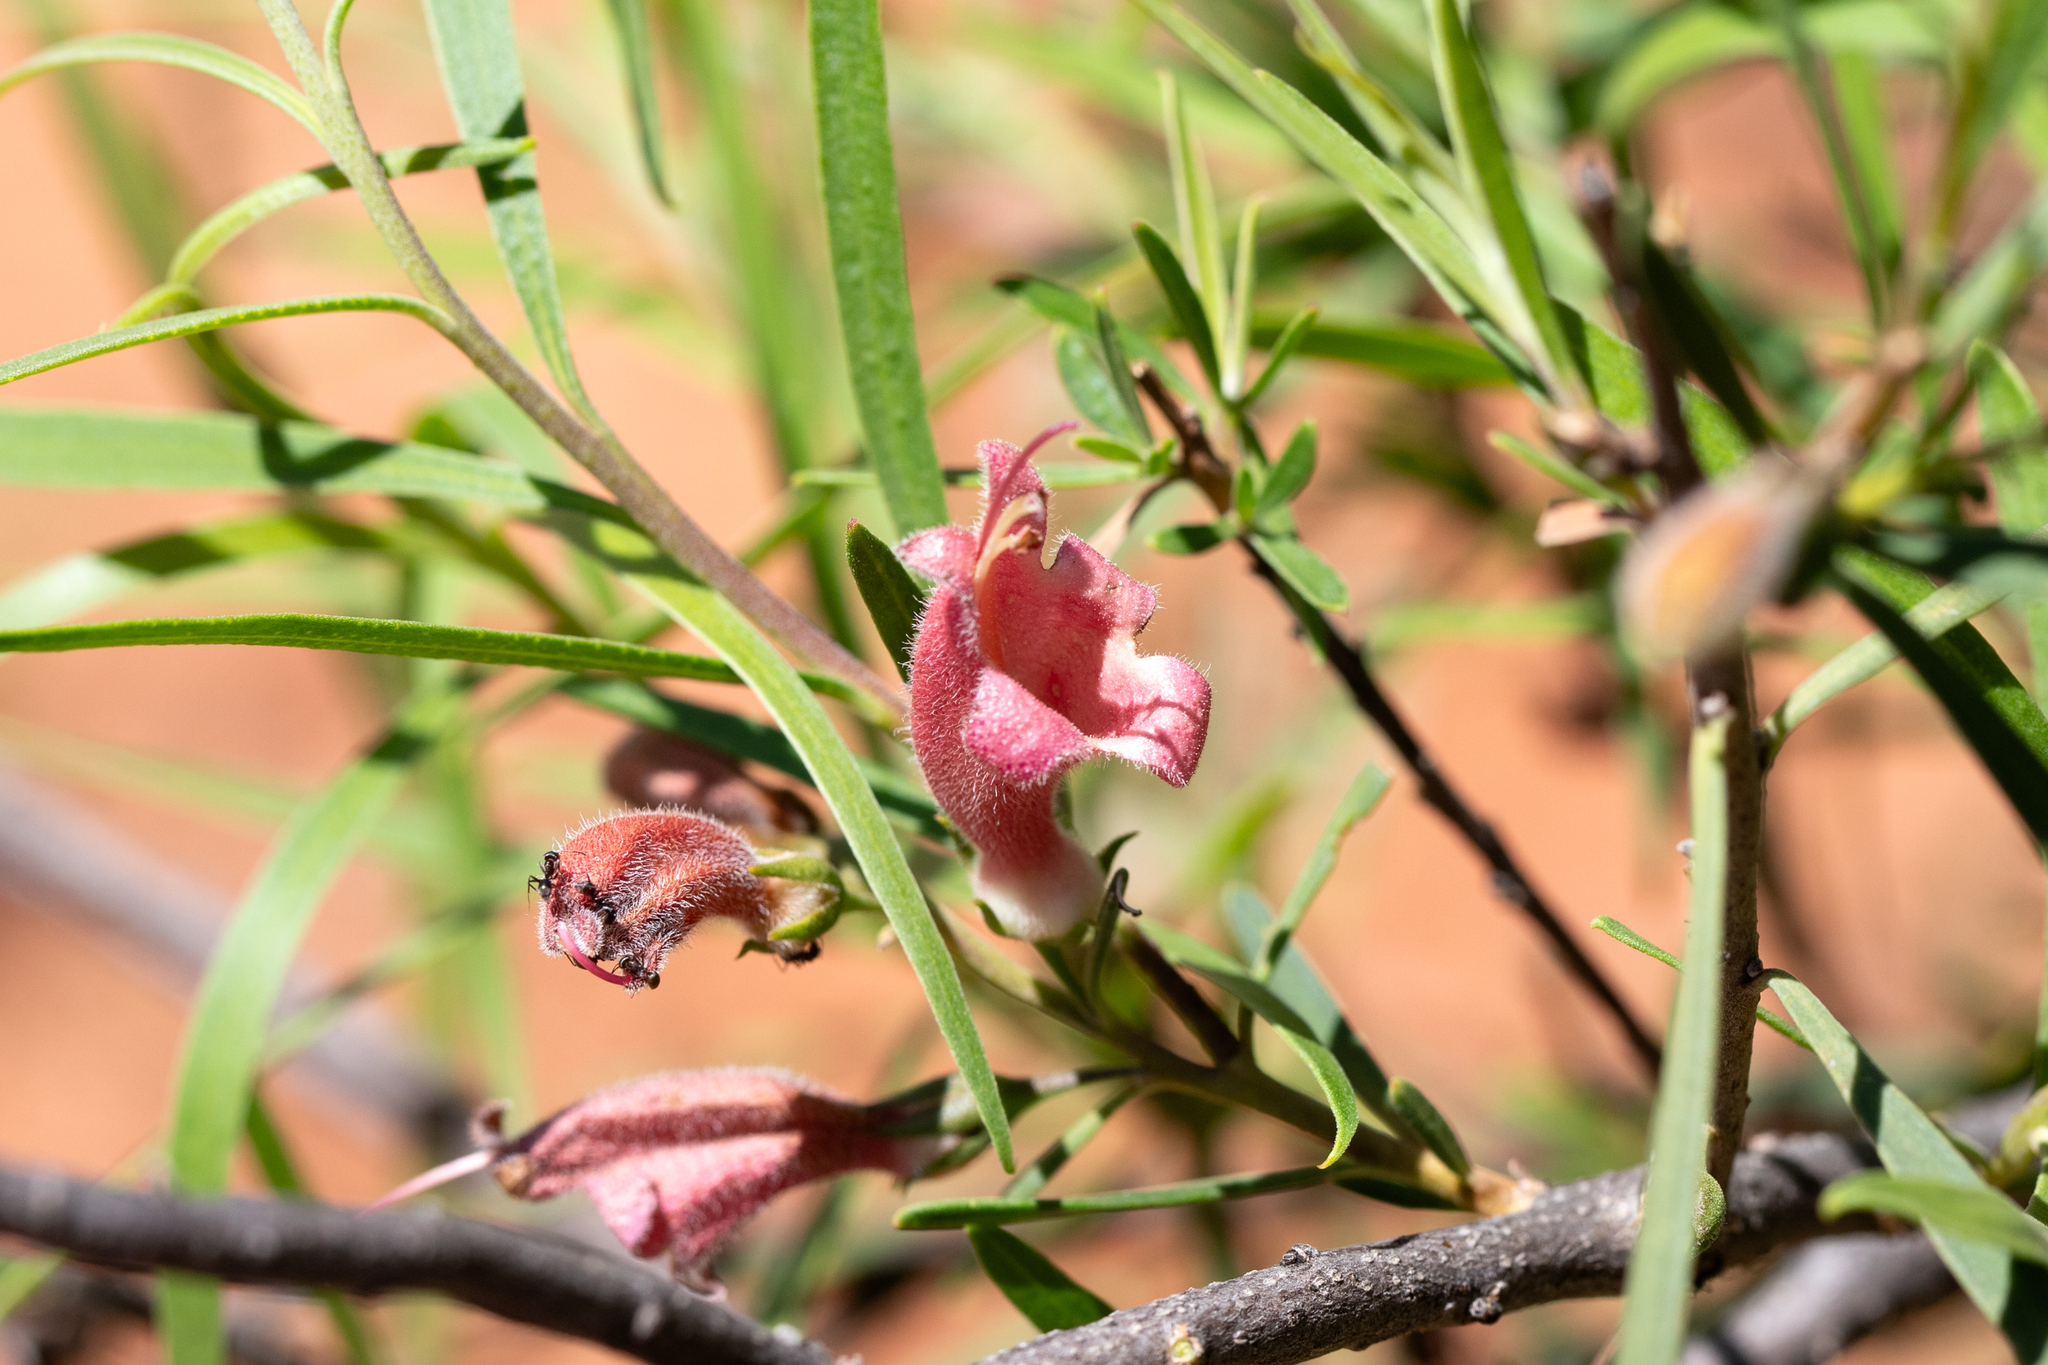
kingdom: Plantae
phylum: Tracheophyta
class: Magnoliopsida
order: Lamiales
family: Scrophulariaceae
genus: Eremophila
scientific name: Eremophila longifolia
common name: Longleaf emubush
